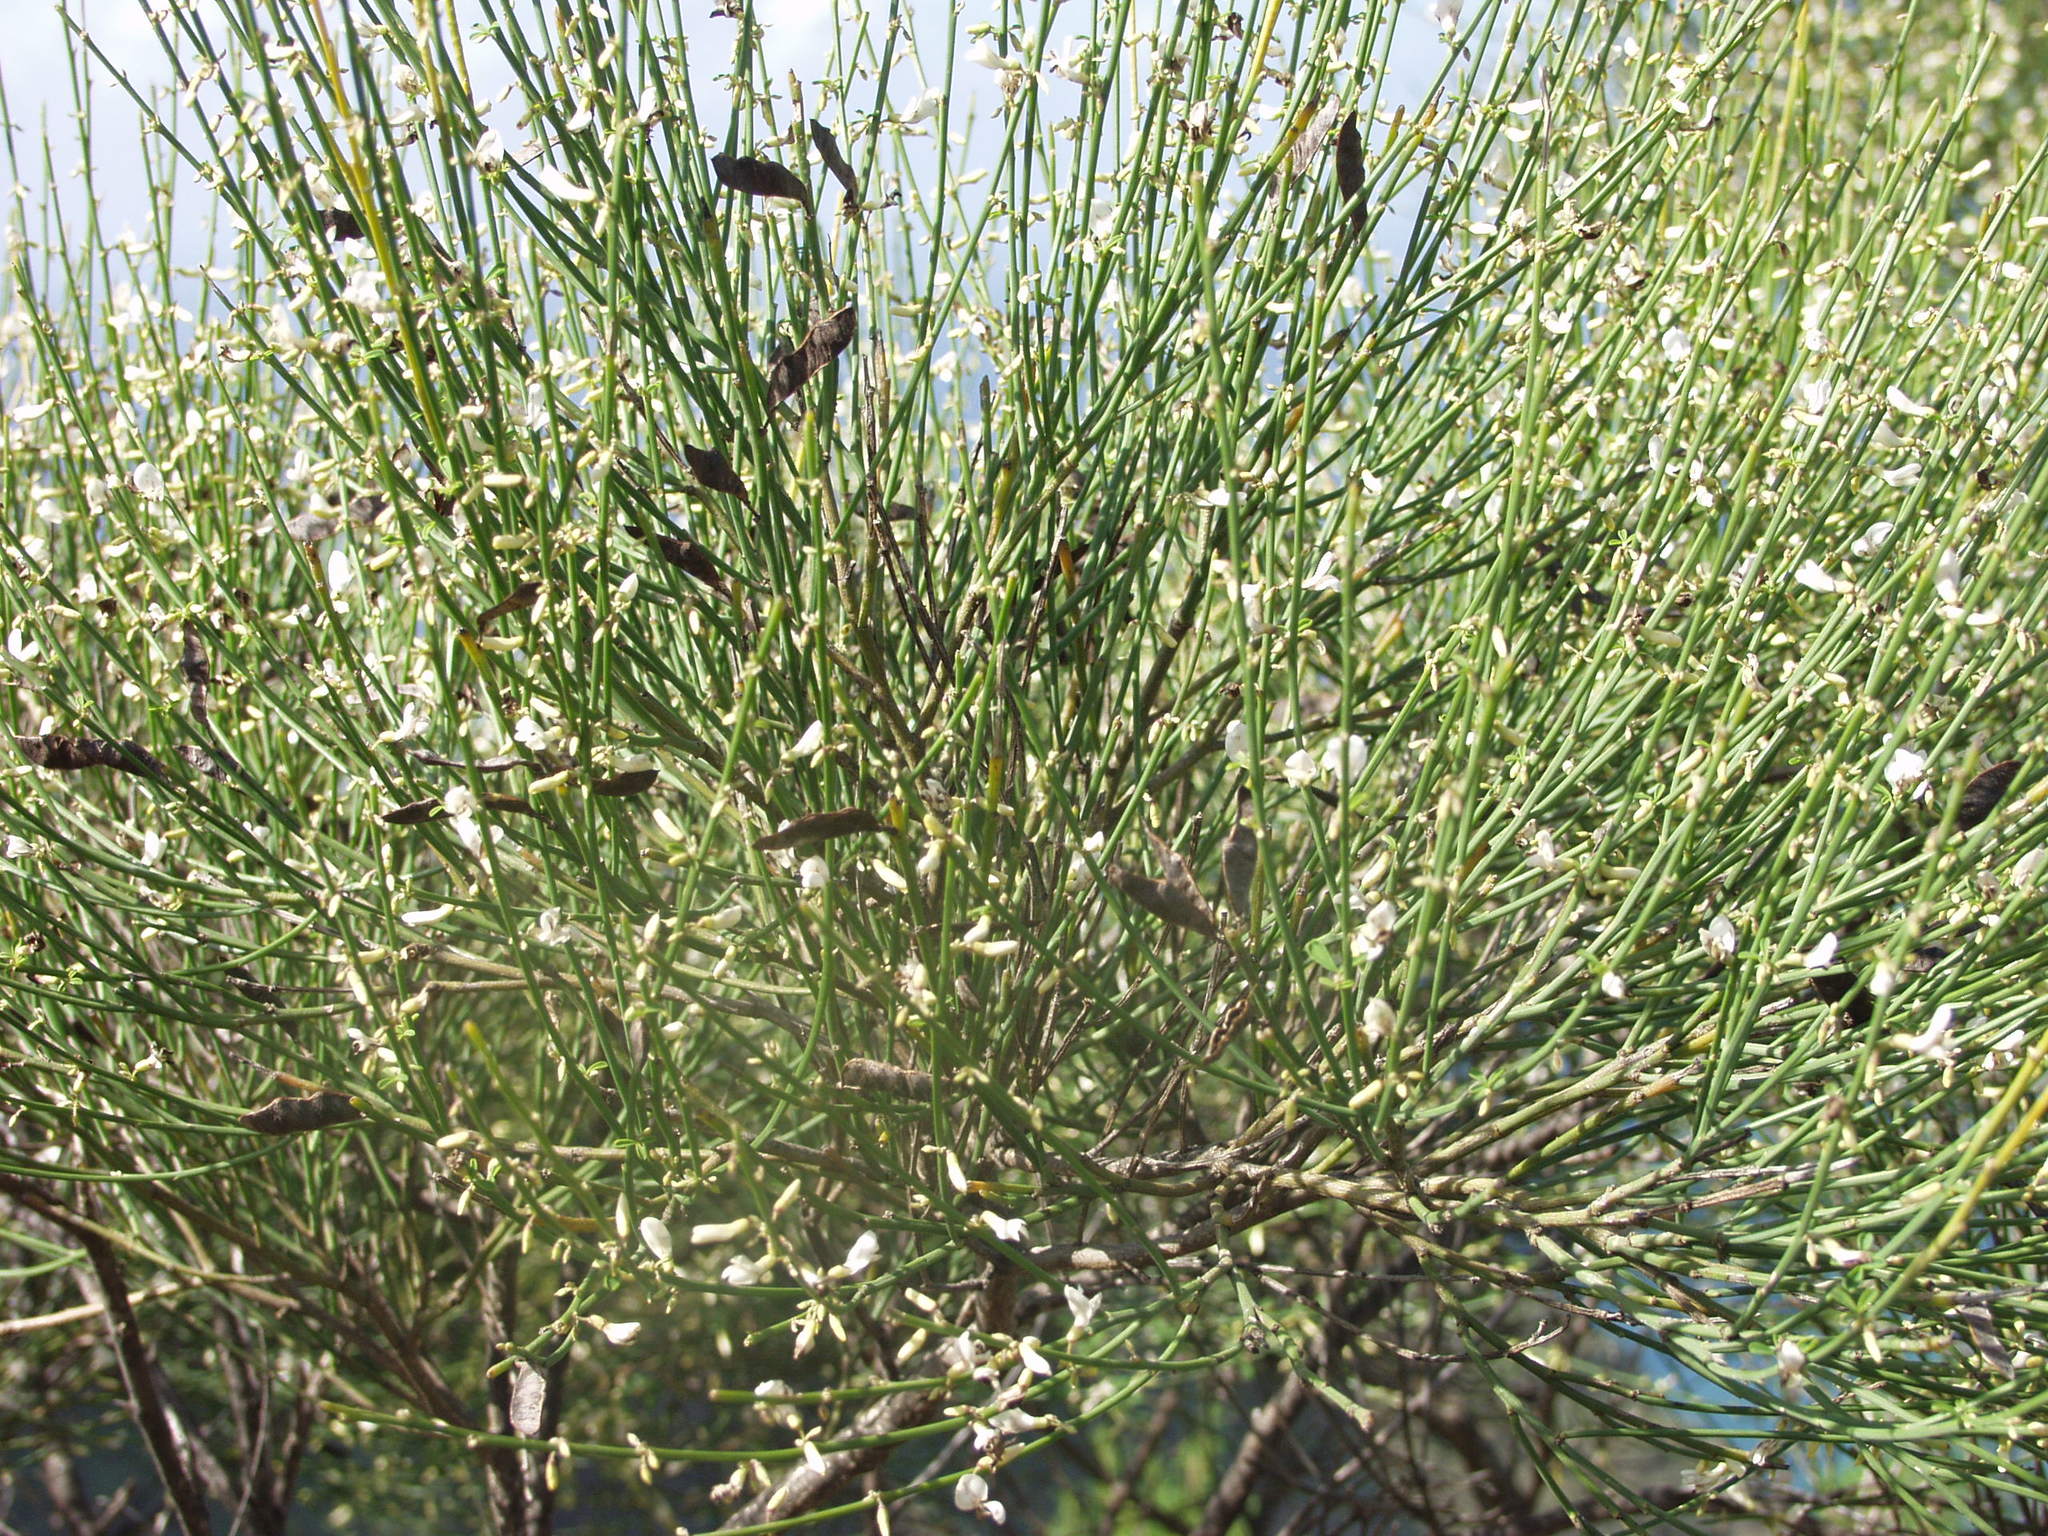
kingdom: Plantae
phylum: Tracheophyta
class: Magnoliopsida
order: Fabales
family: Fabaceae
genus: Retama
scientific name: Retama rhodorhizoides
